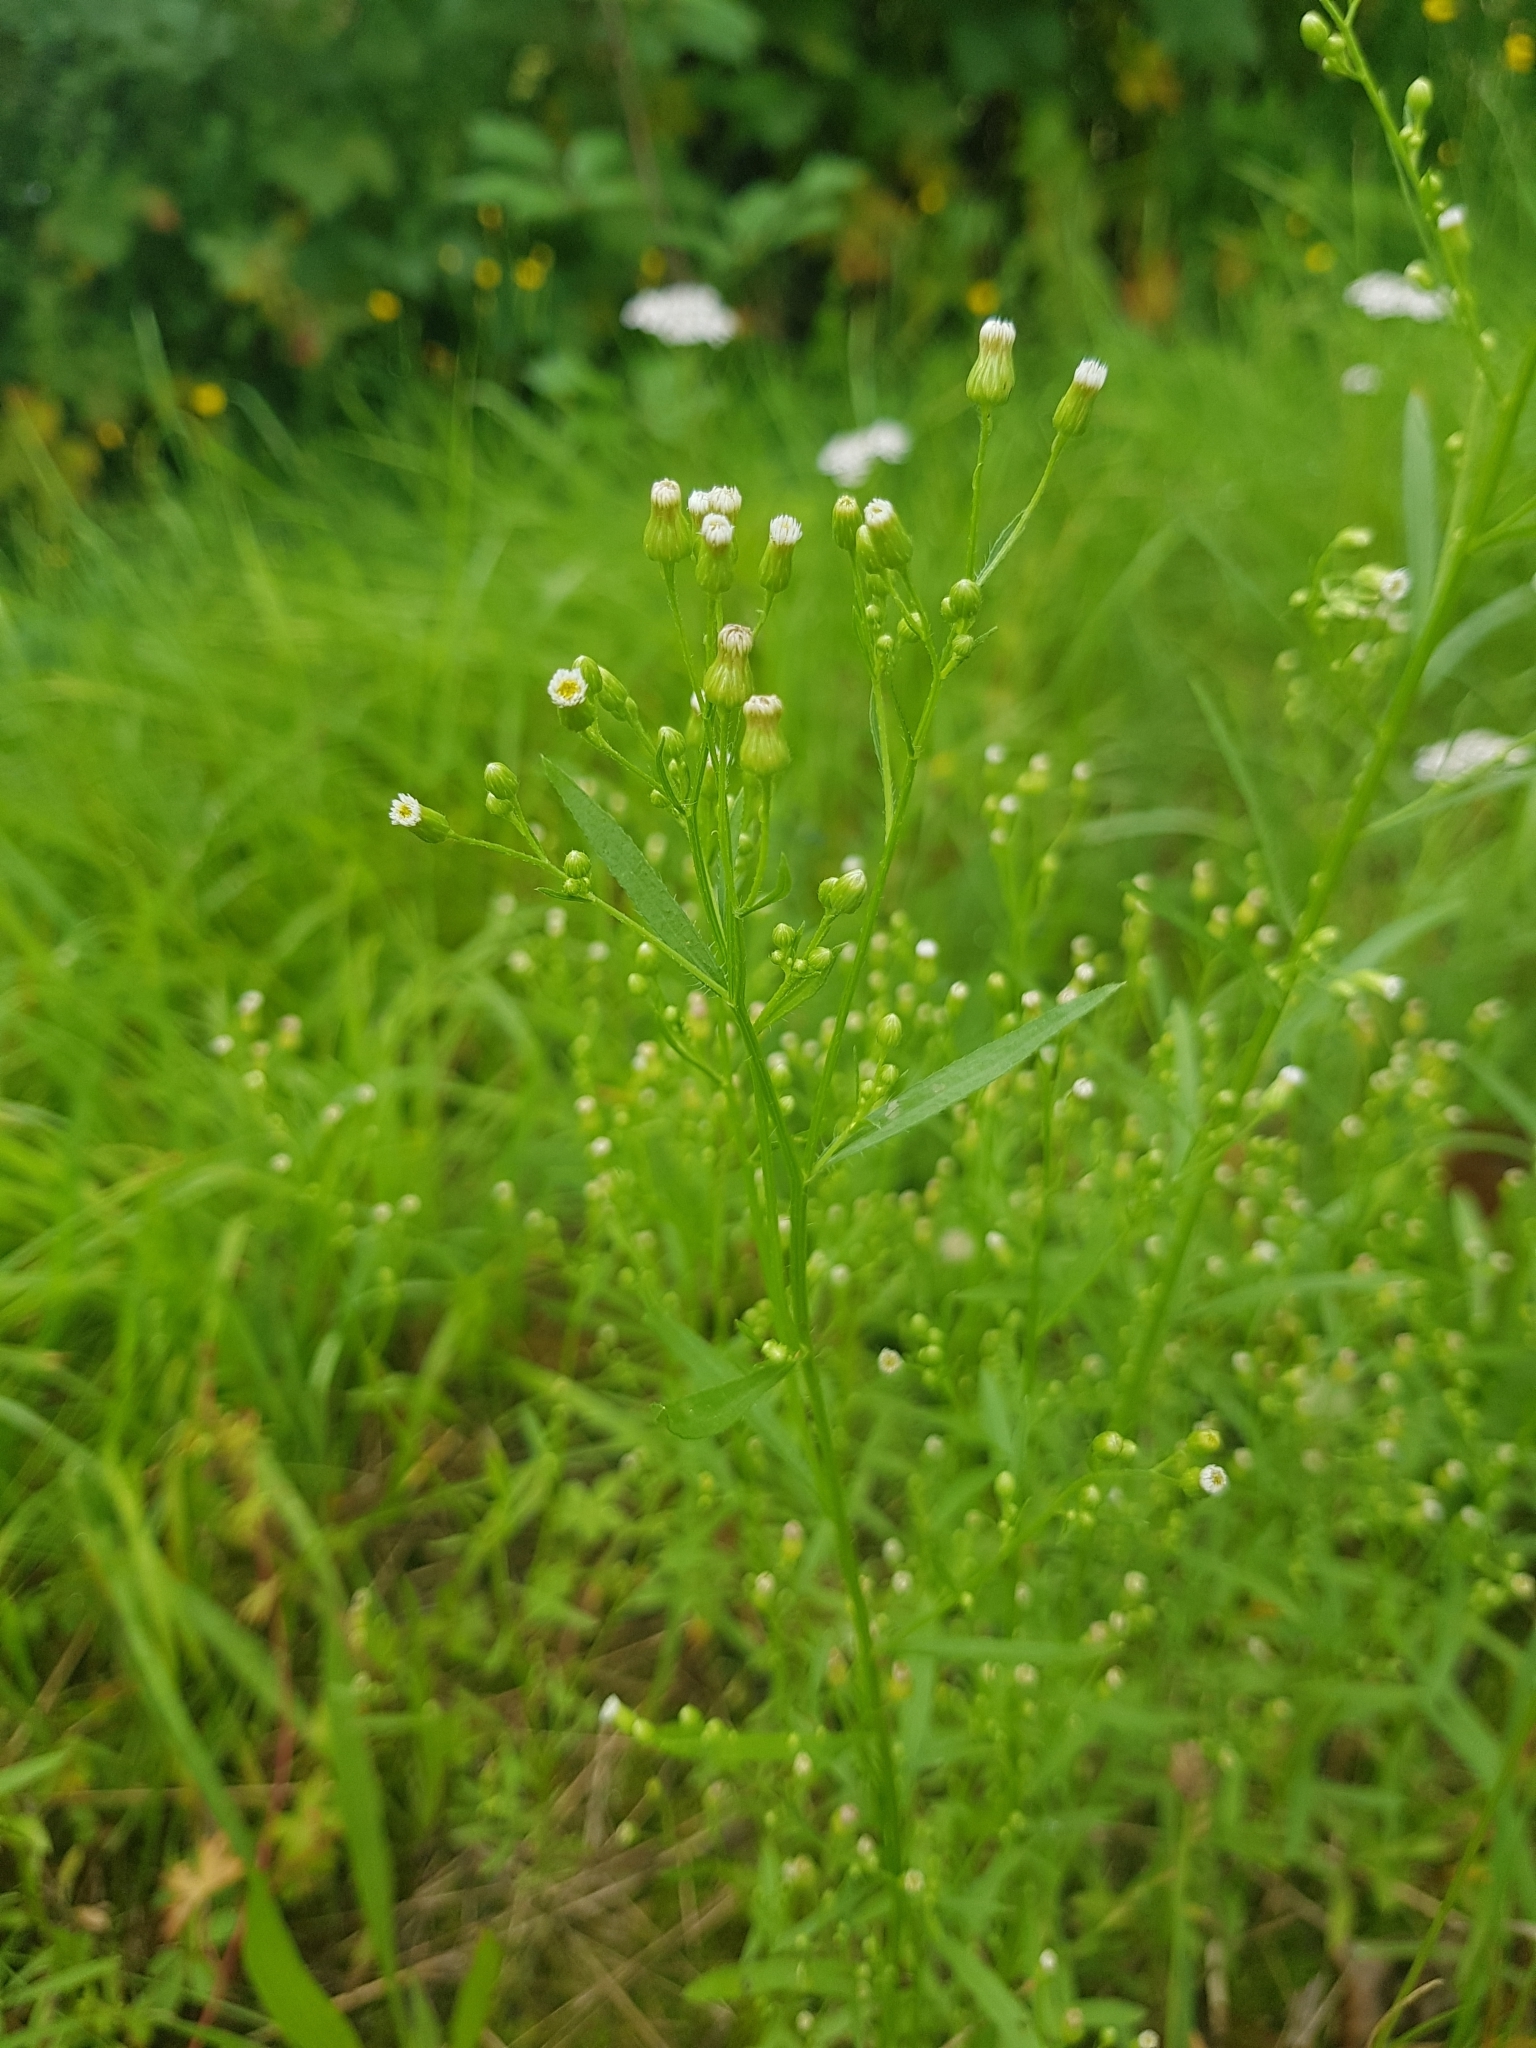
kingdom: Plantae
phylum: Tracheophyta
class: Magnoliopsida
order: Asterales
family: Asteraceae
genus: Erigeron
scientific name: Erigeron canadensis
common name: Canadian fleabane
